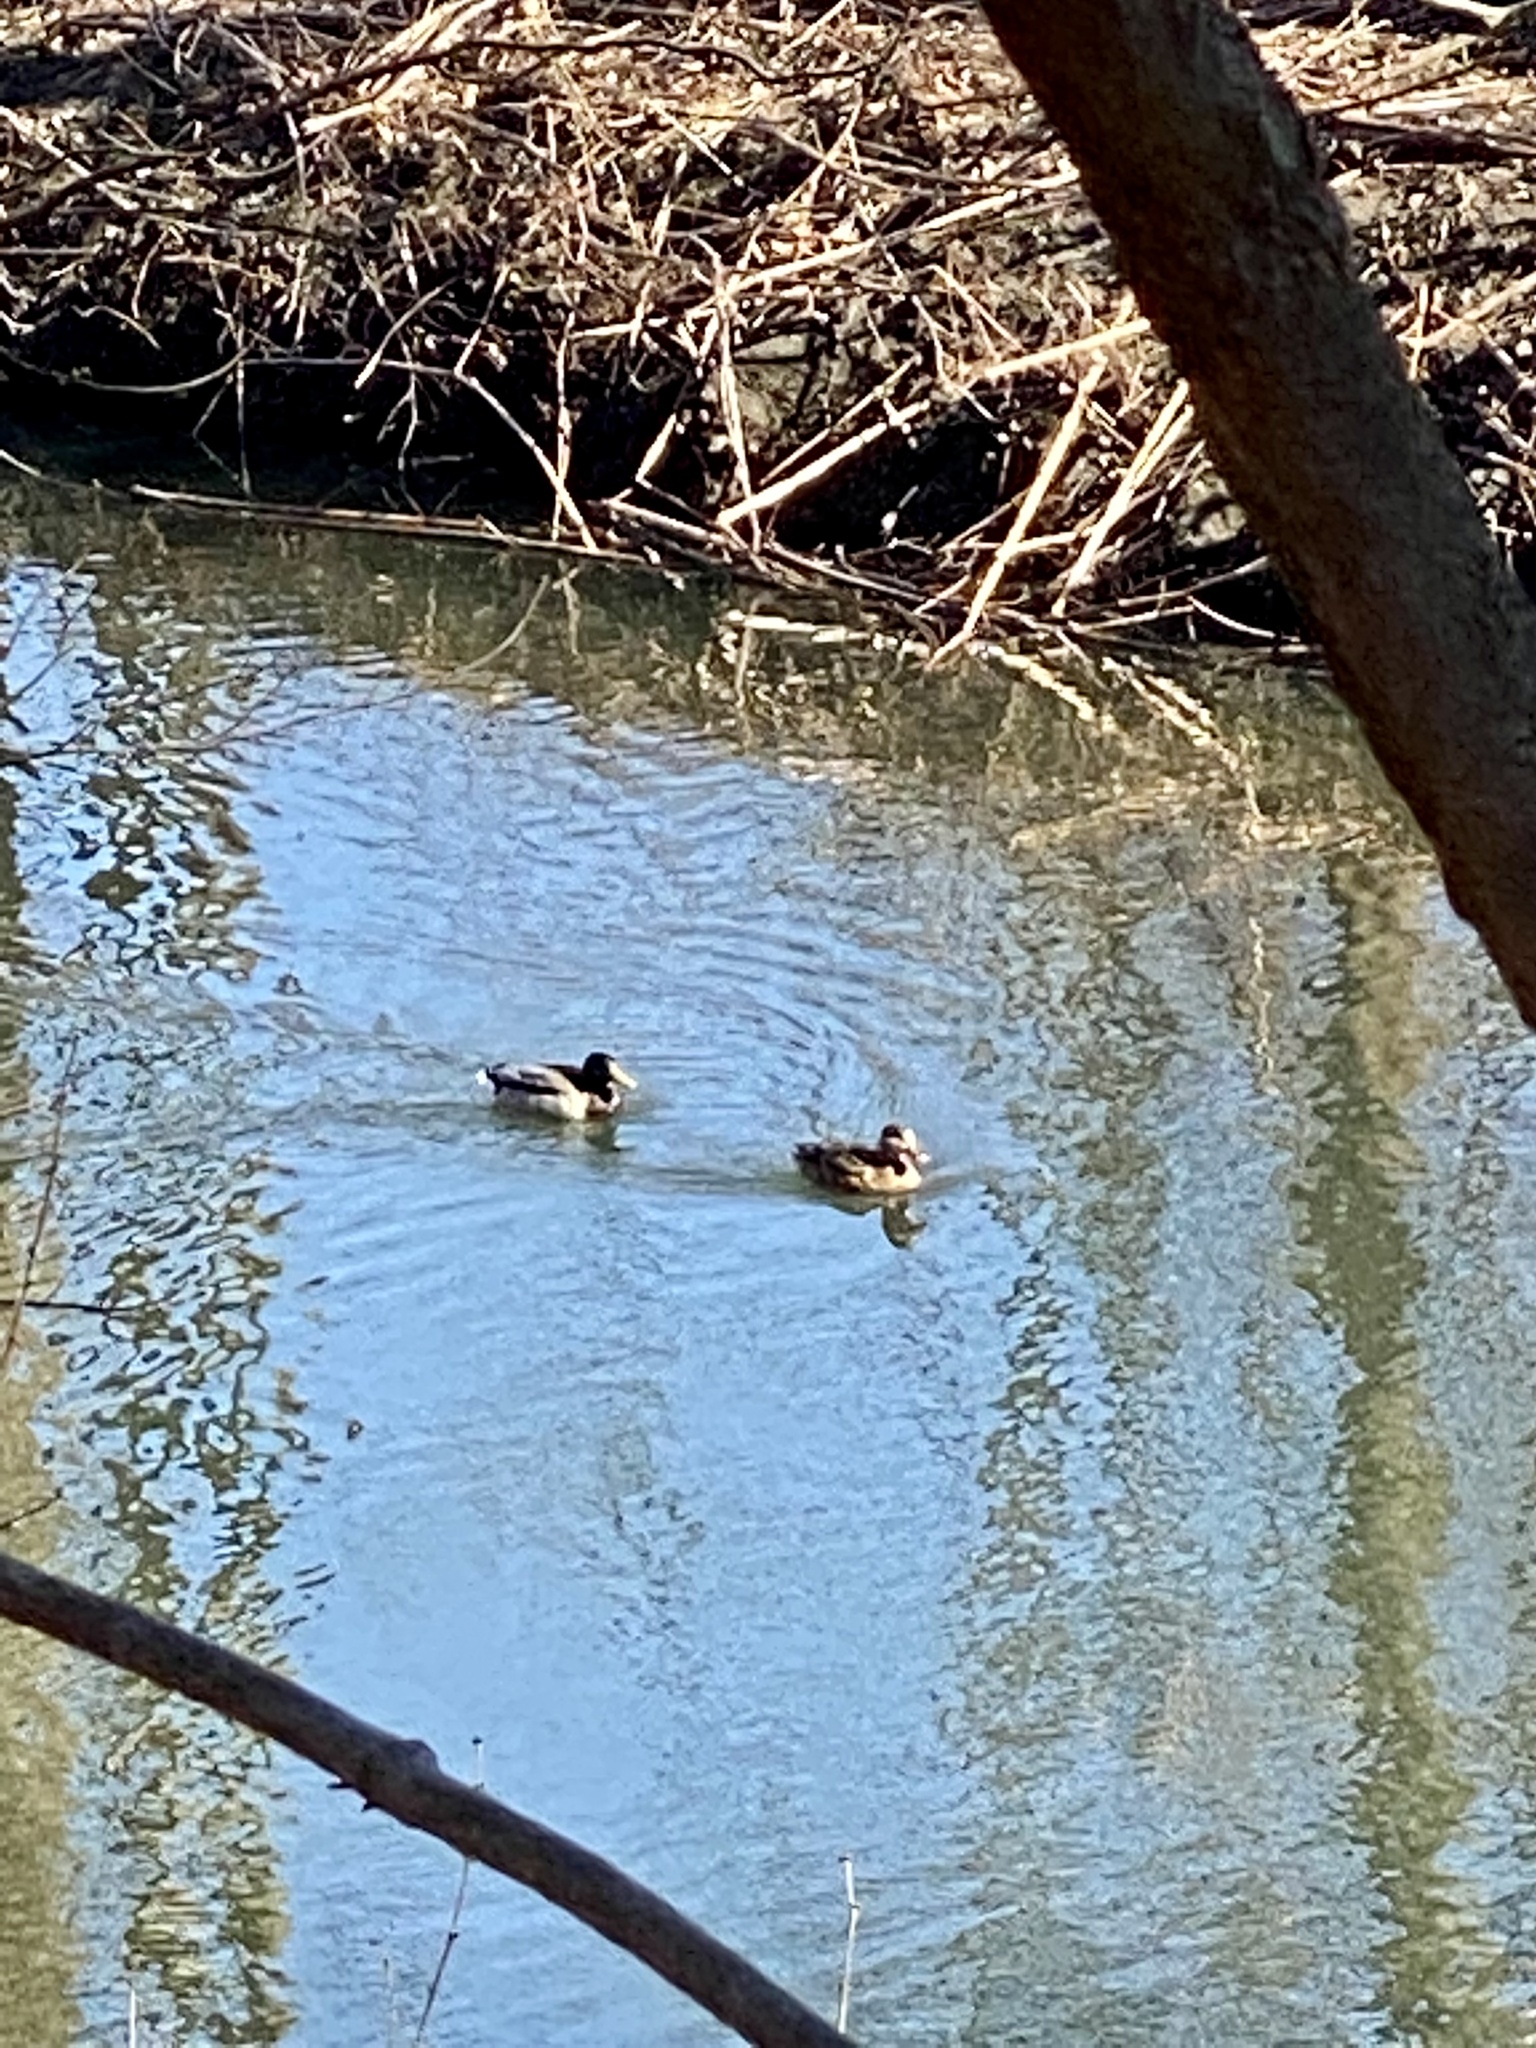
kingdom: Animalia
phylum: Chordata
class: Aves
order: Anseriformes
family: Anatidae
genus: Anas
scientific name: Anas platyrhynchos
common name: Mallard
